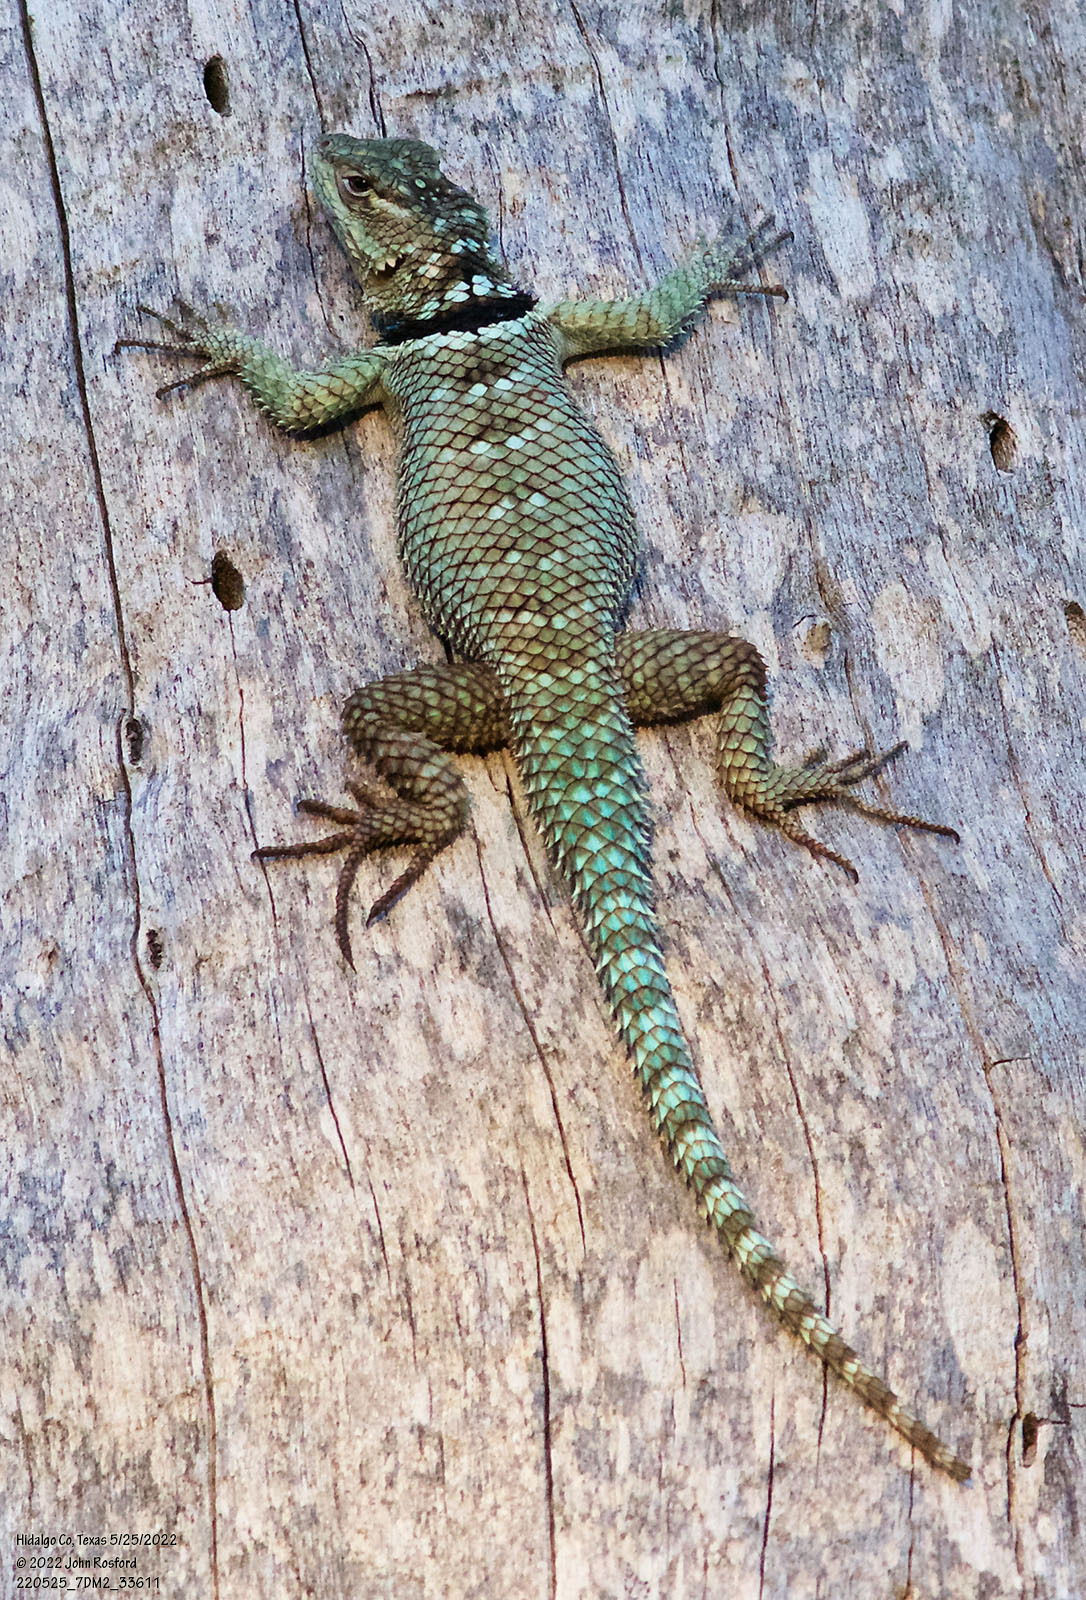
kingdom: Animalia
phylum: Chordata
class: Squamata
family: Phrynosomatidae
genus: Sceloporus
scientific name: Sceloporus cyanogenys
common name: Blue spiny lizard
